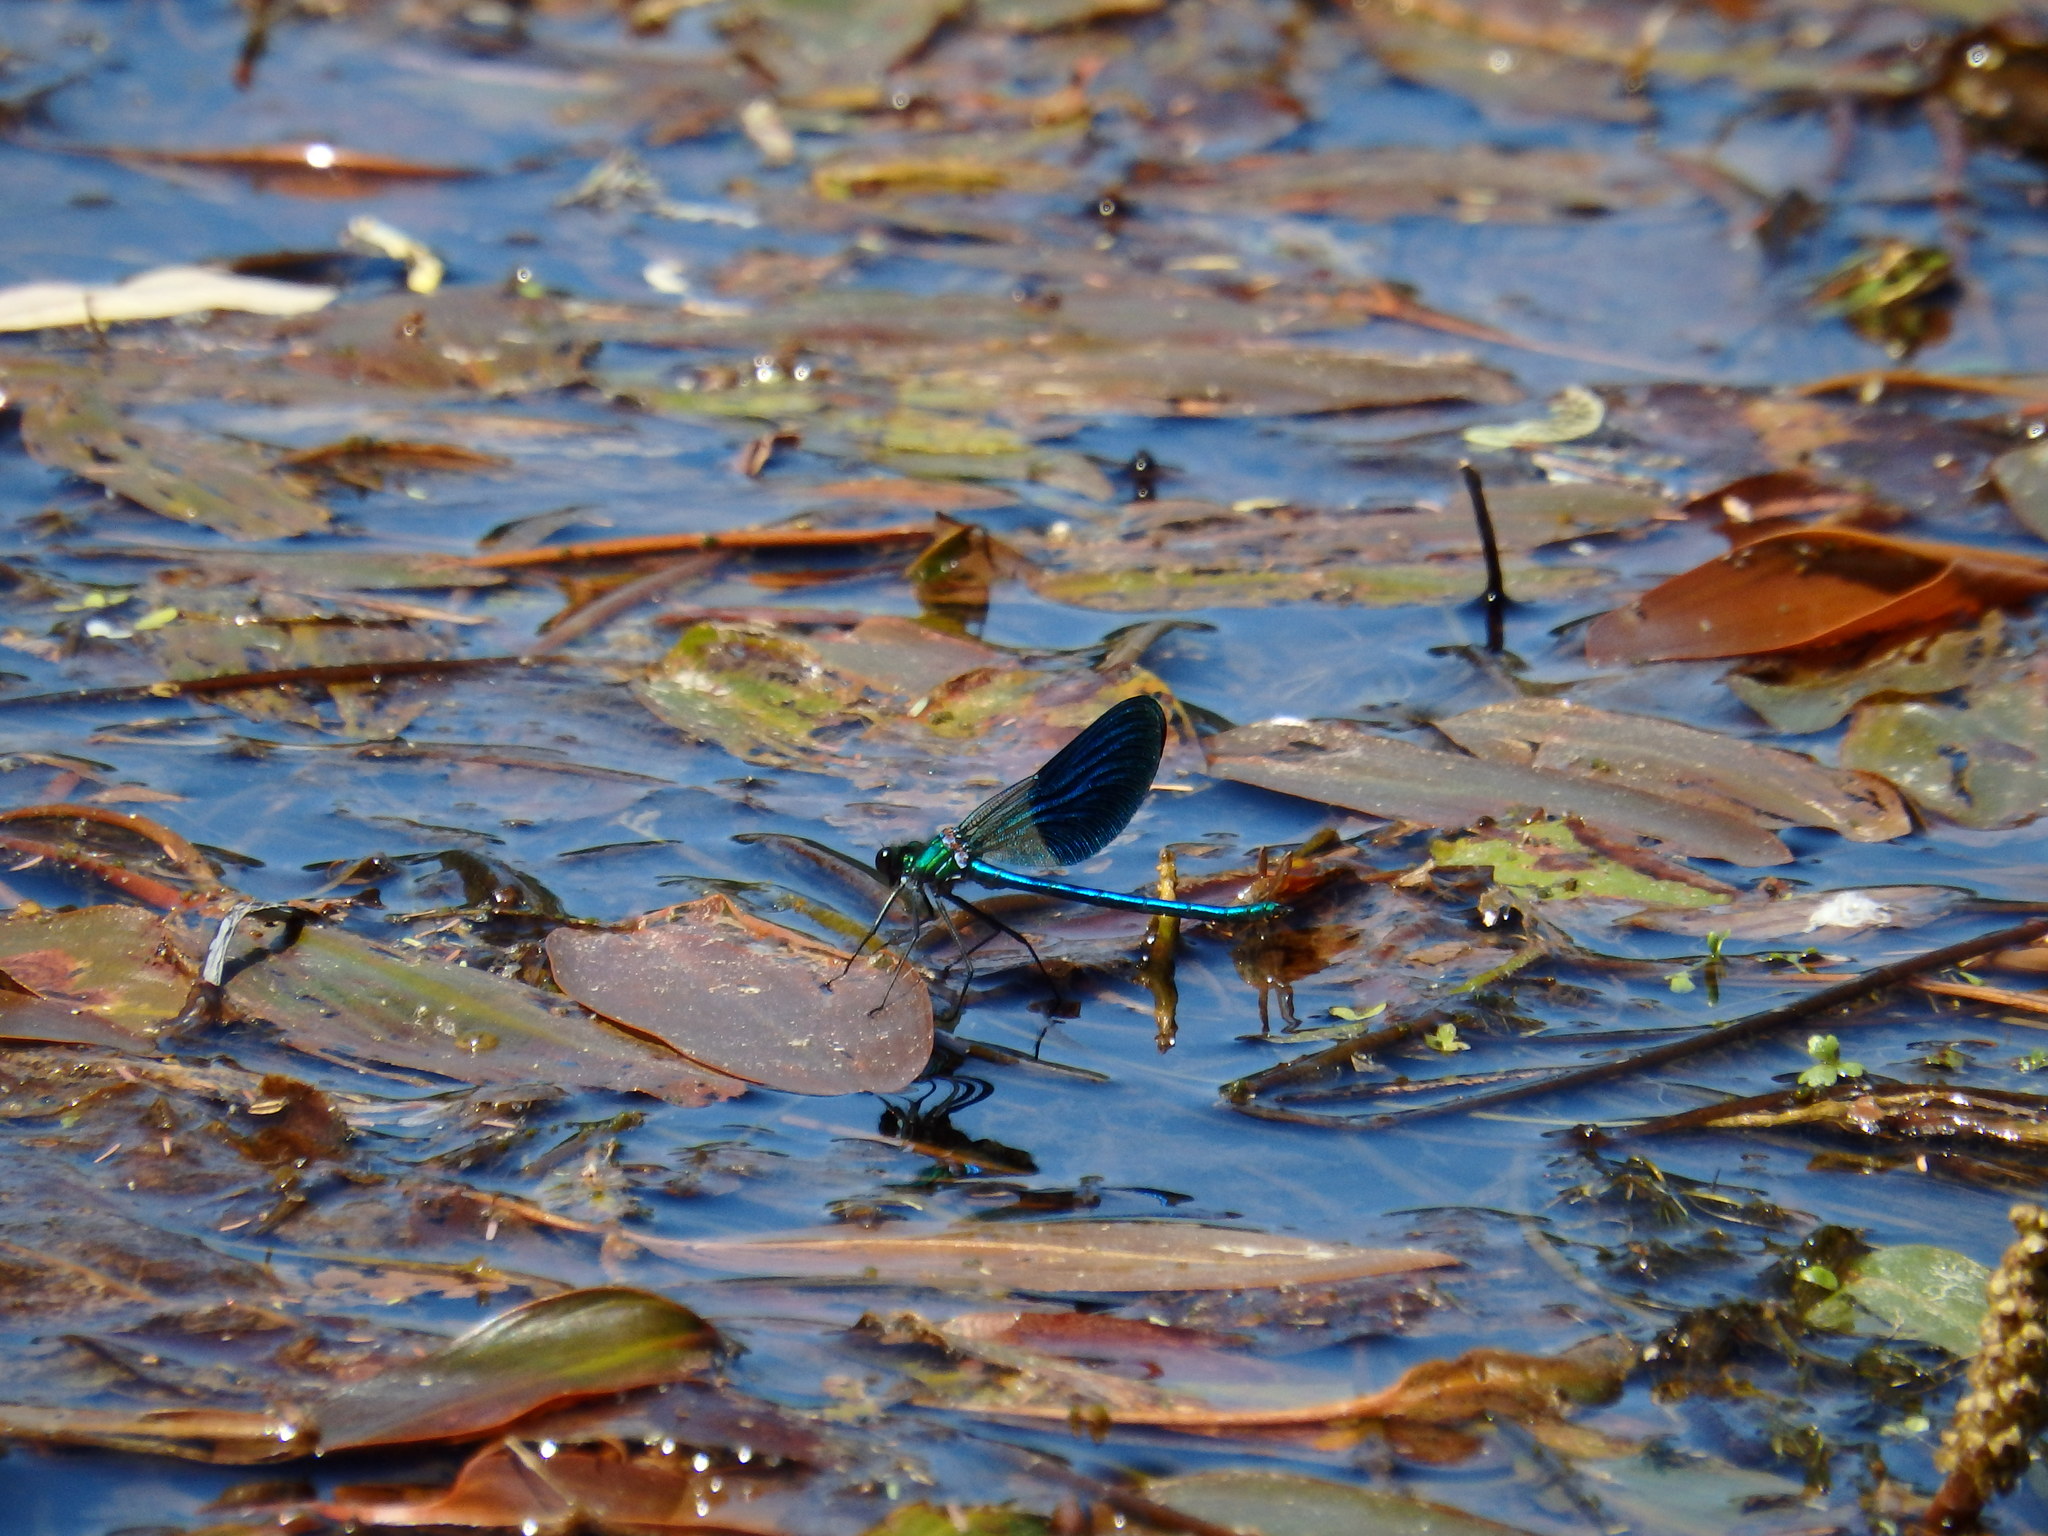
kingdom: Animalia
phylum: Arthropoda
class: Insecta
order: Odonata
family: Calopterygidae
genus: Calopteryx
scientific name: Calopteryx xanthostoma
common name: Western demoiselle
